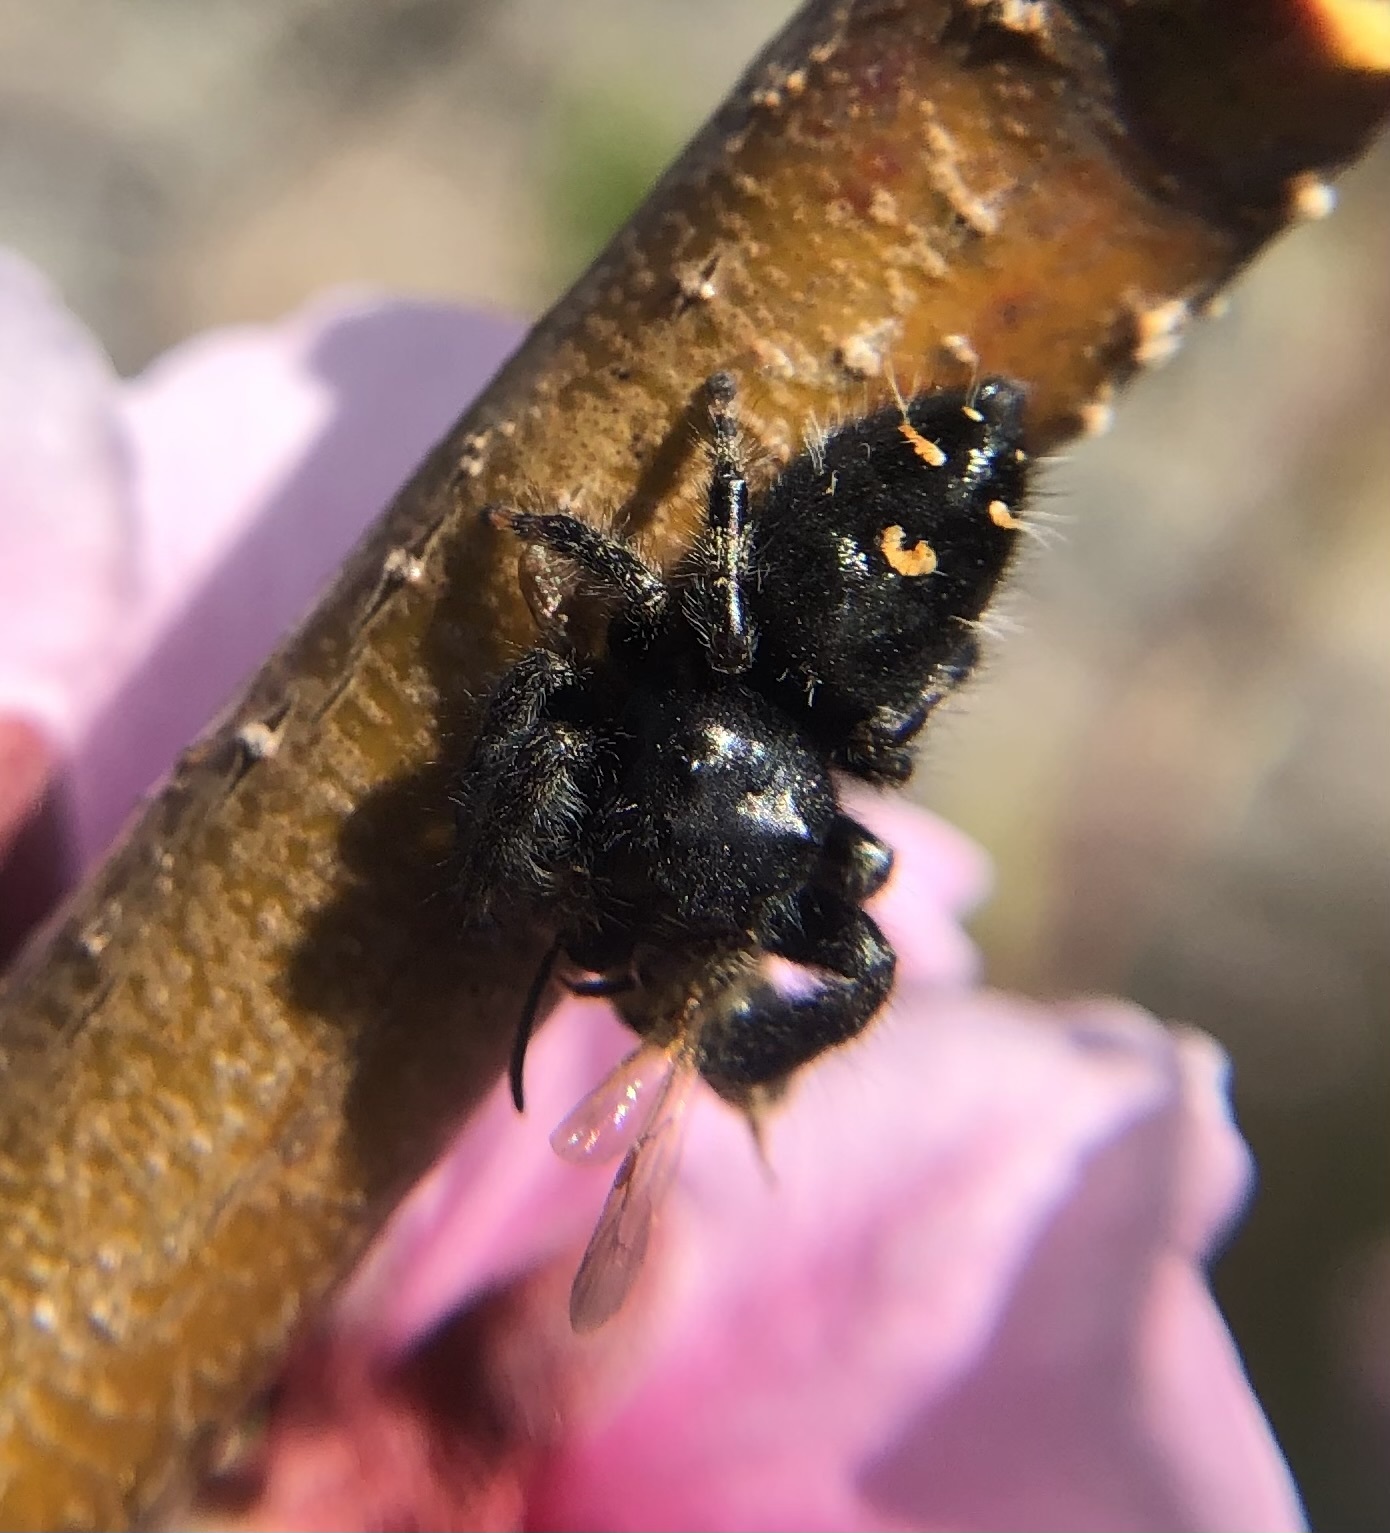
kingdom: Animalia
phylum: Arthropoda
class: Arachnida
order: Araneae
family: Salticidae
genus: Phidippus
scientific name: Phidippus audax
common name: Bold jumper
